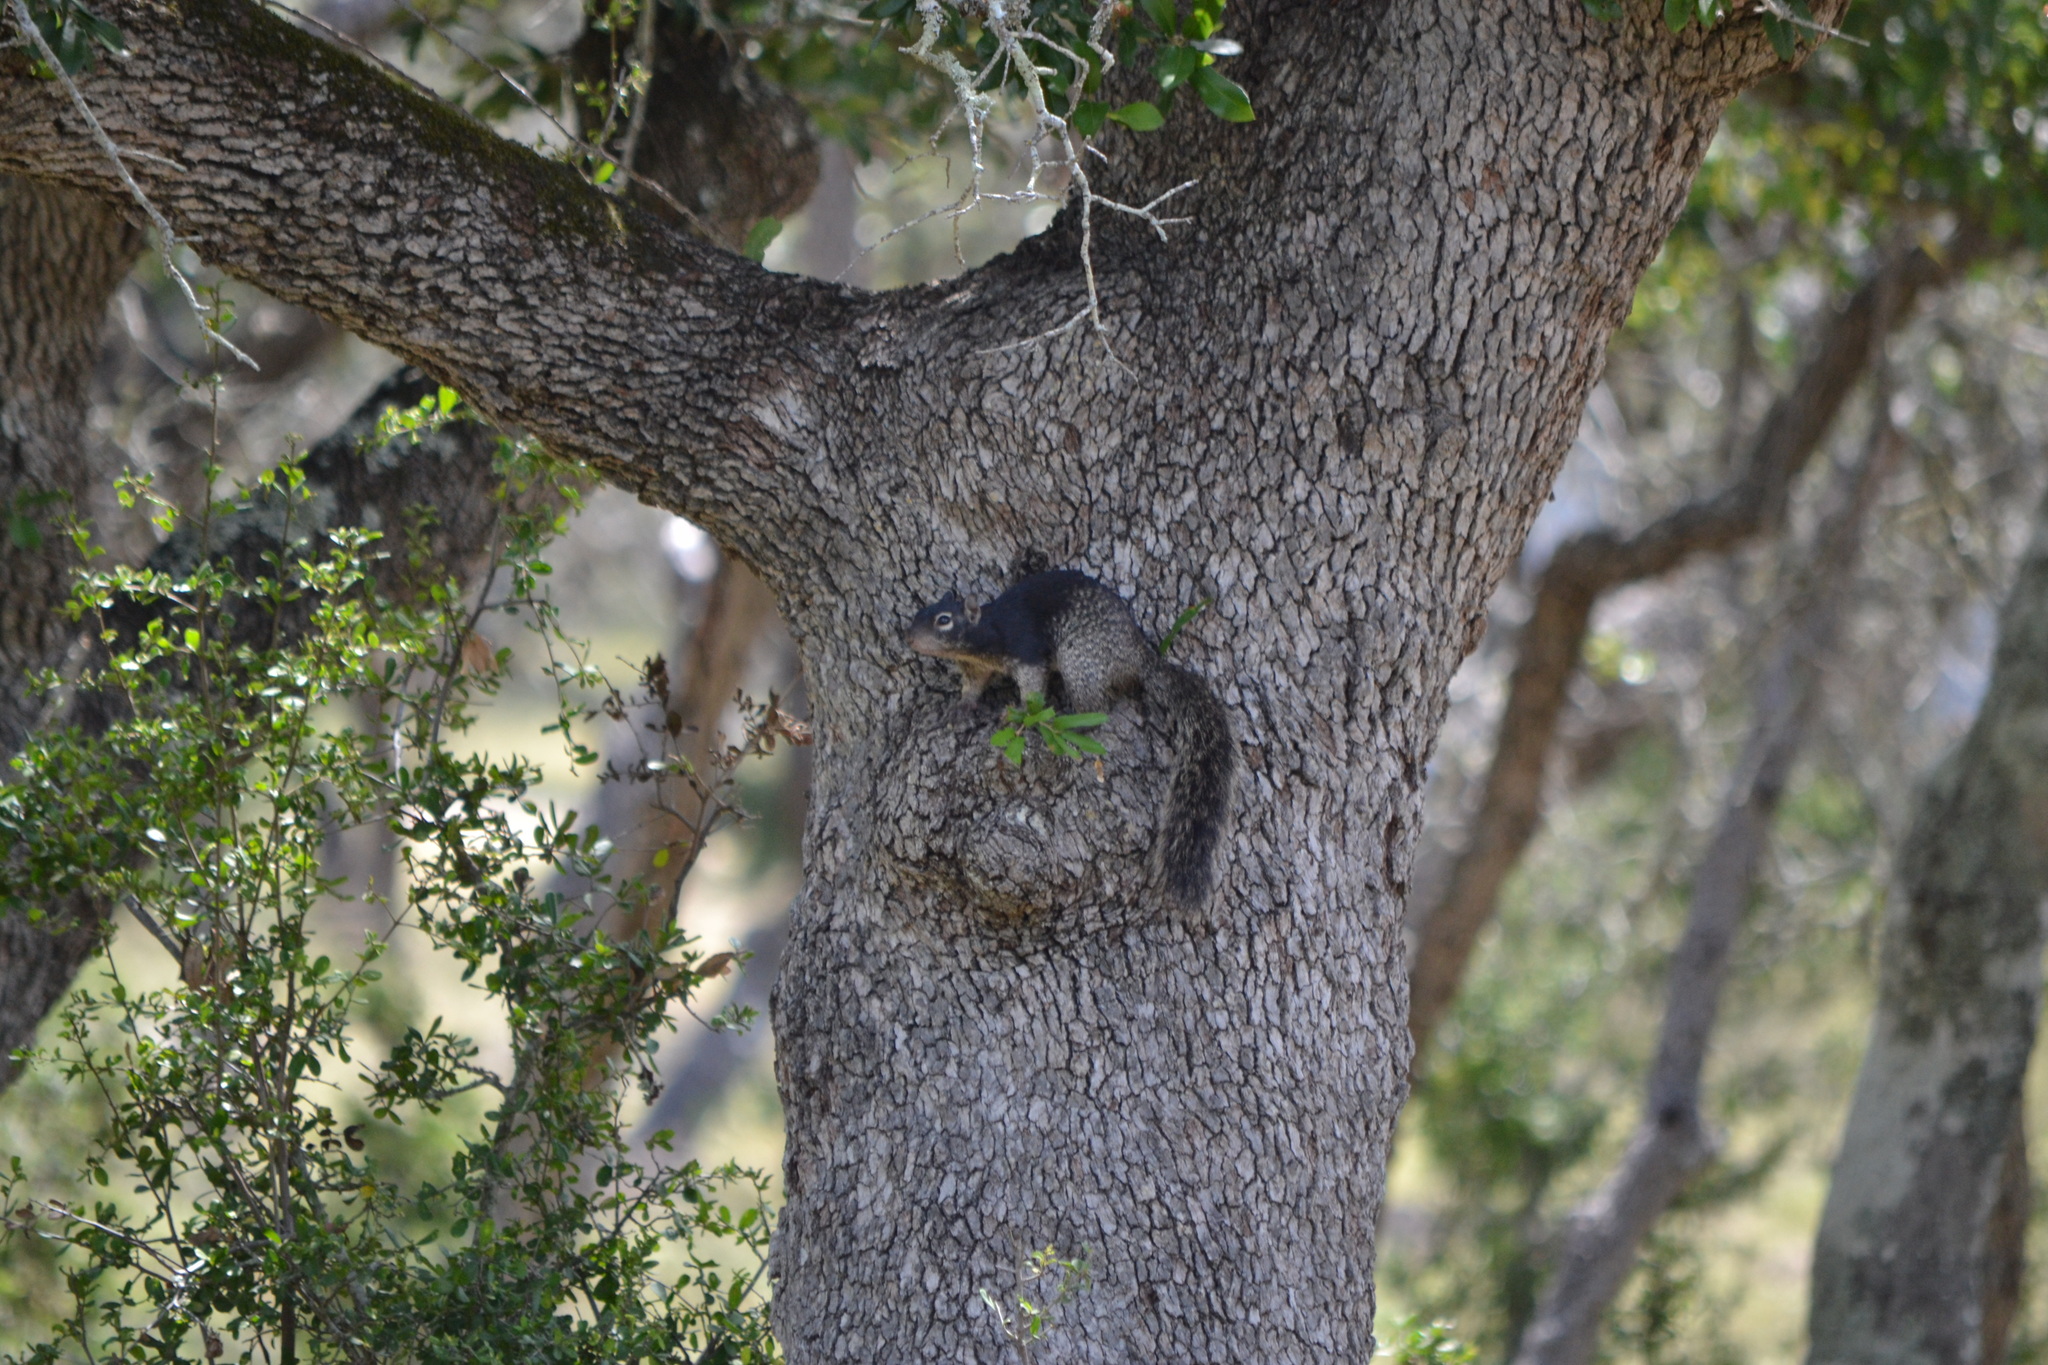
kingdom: Animalia
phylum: Chordata
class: Mammalia
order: Rodentia
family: Sciuridae
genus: Otospermophilus
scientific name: Otospermophilus variegatus
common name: Rock squirrel
